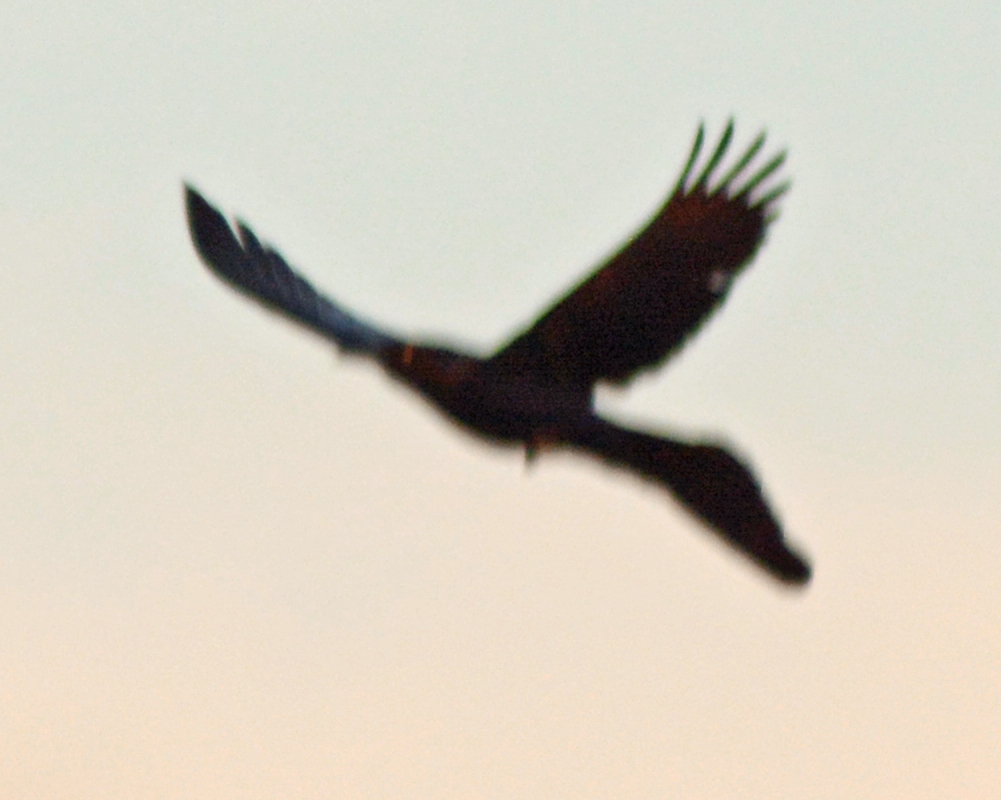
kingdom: Animalia
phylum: Chordata
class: Aves
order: Passeriformes
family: Icteridae
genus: Quiscalus
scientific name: Quiscalus mexicanus
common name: Great-tailed grackle
